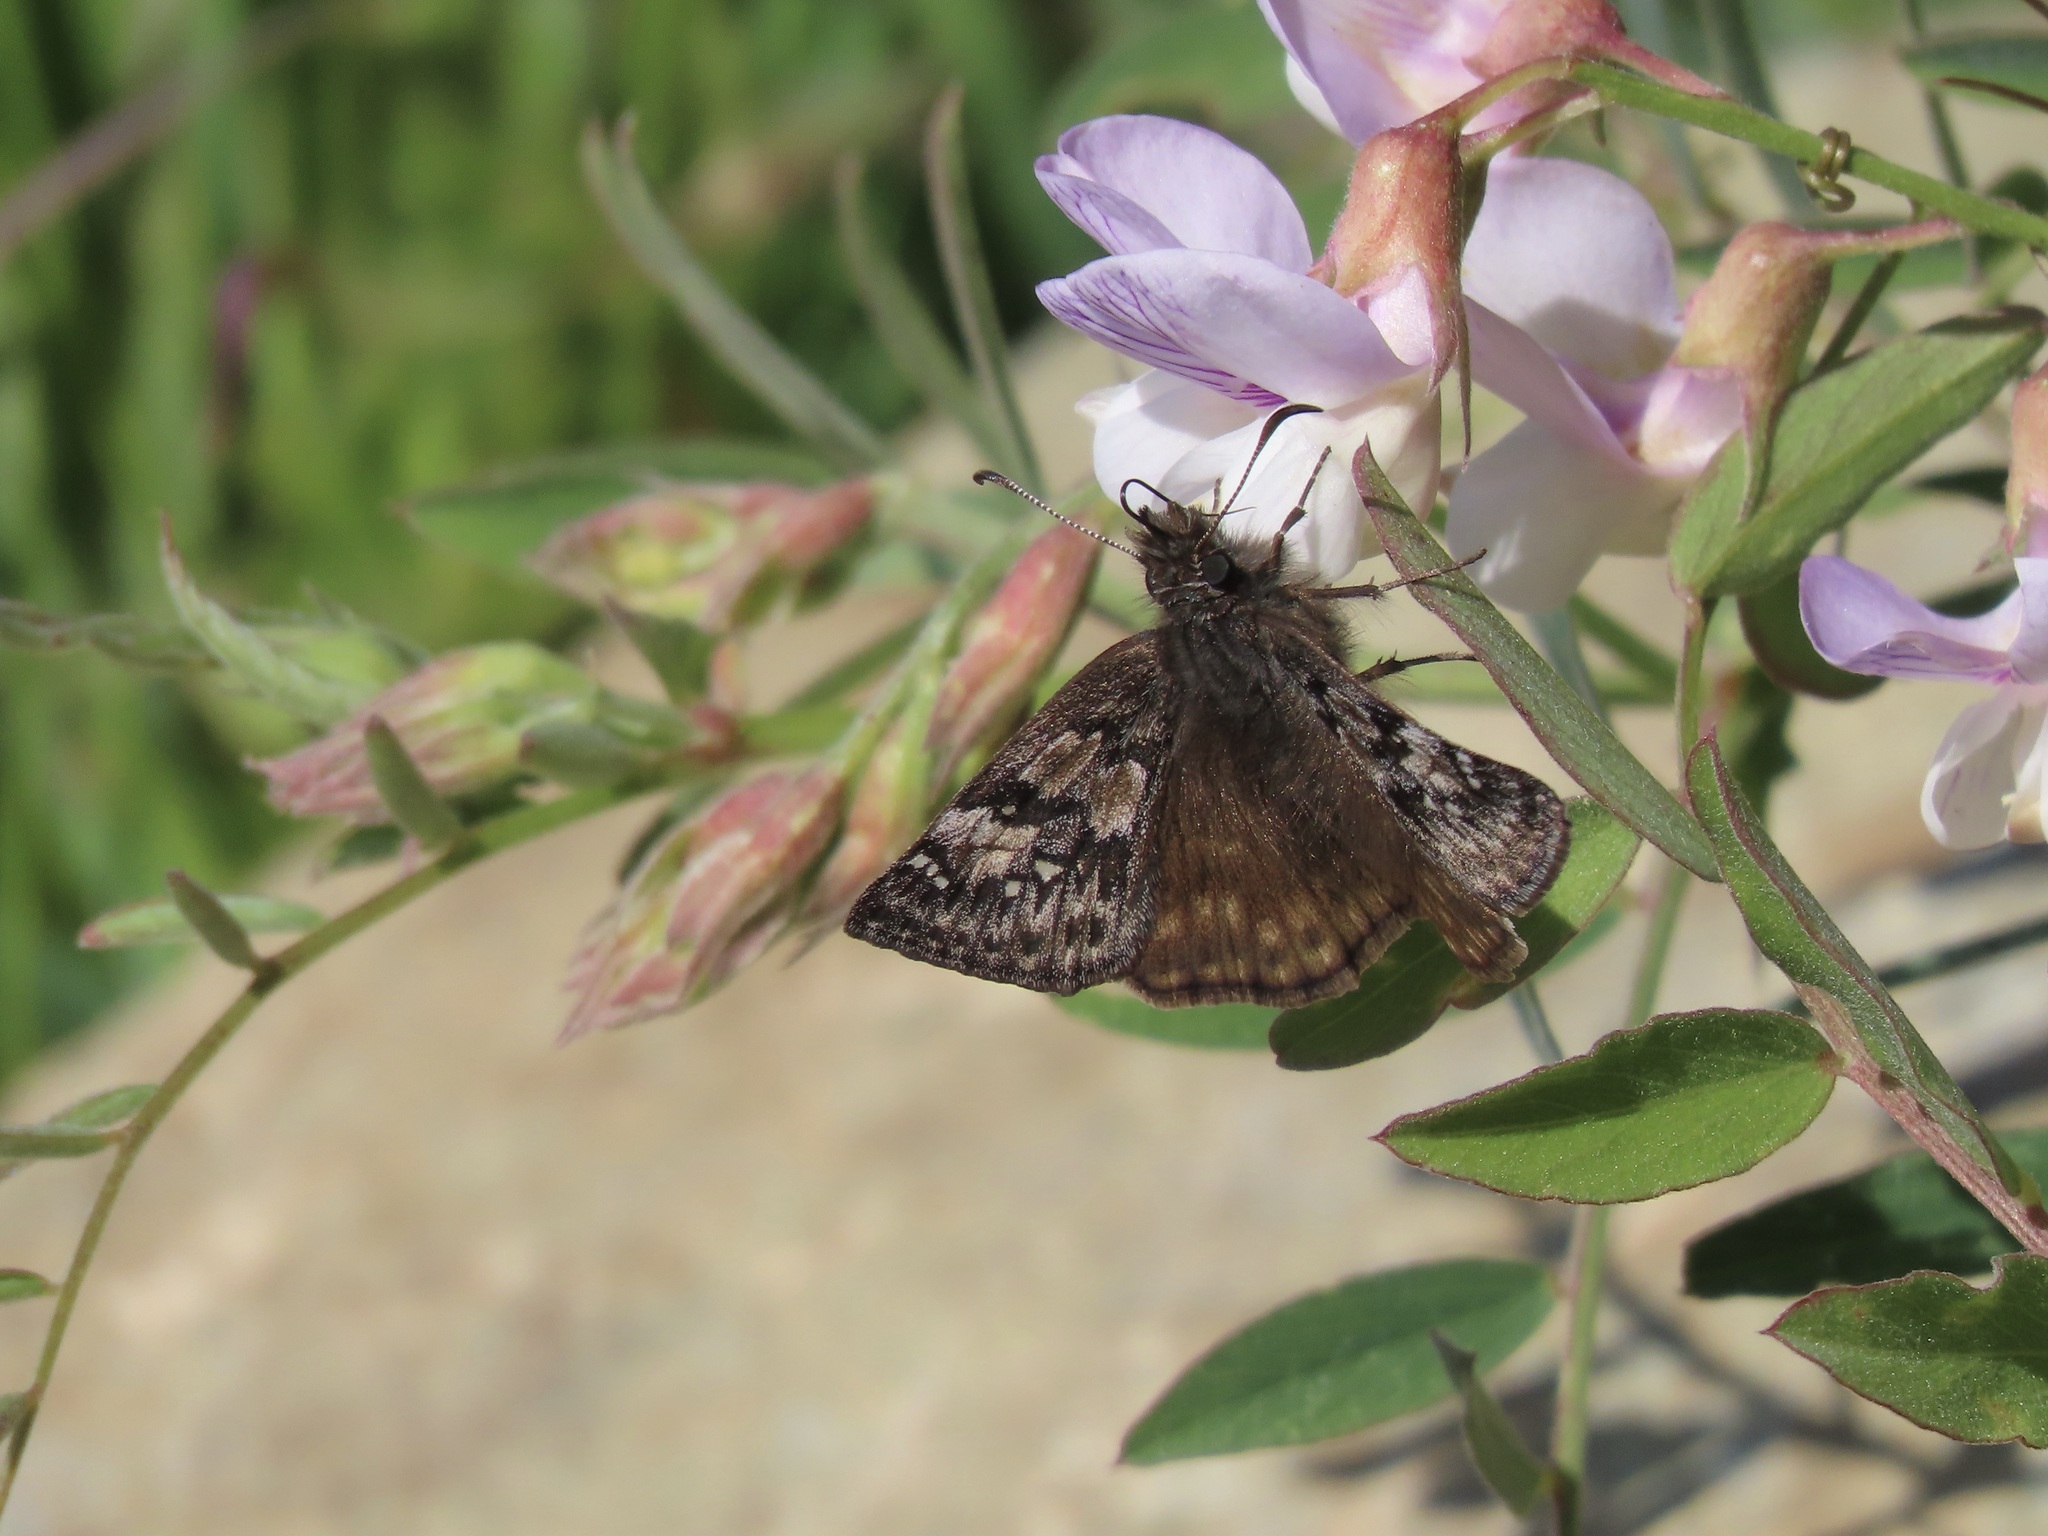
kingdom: Animalia
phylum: Arthropoda
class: Insecta
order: Lepidoptera
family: Hesperiidae
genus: Erynnis
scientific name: Erynnis propertius
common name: Propertius duskywing
